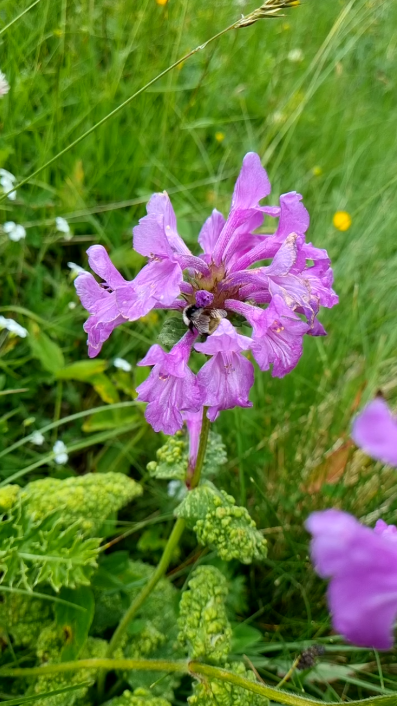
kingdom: Plantae
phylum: Tracheophyta
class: Magnoliopsida
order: Lamiales
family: Lamiaceae
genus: Betonica
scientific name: Betonica macrantha
